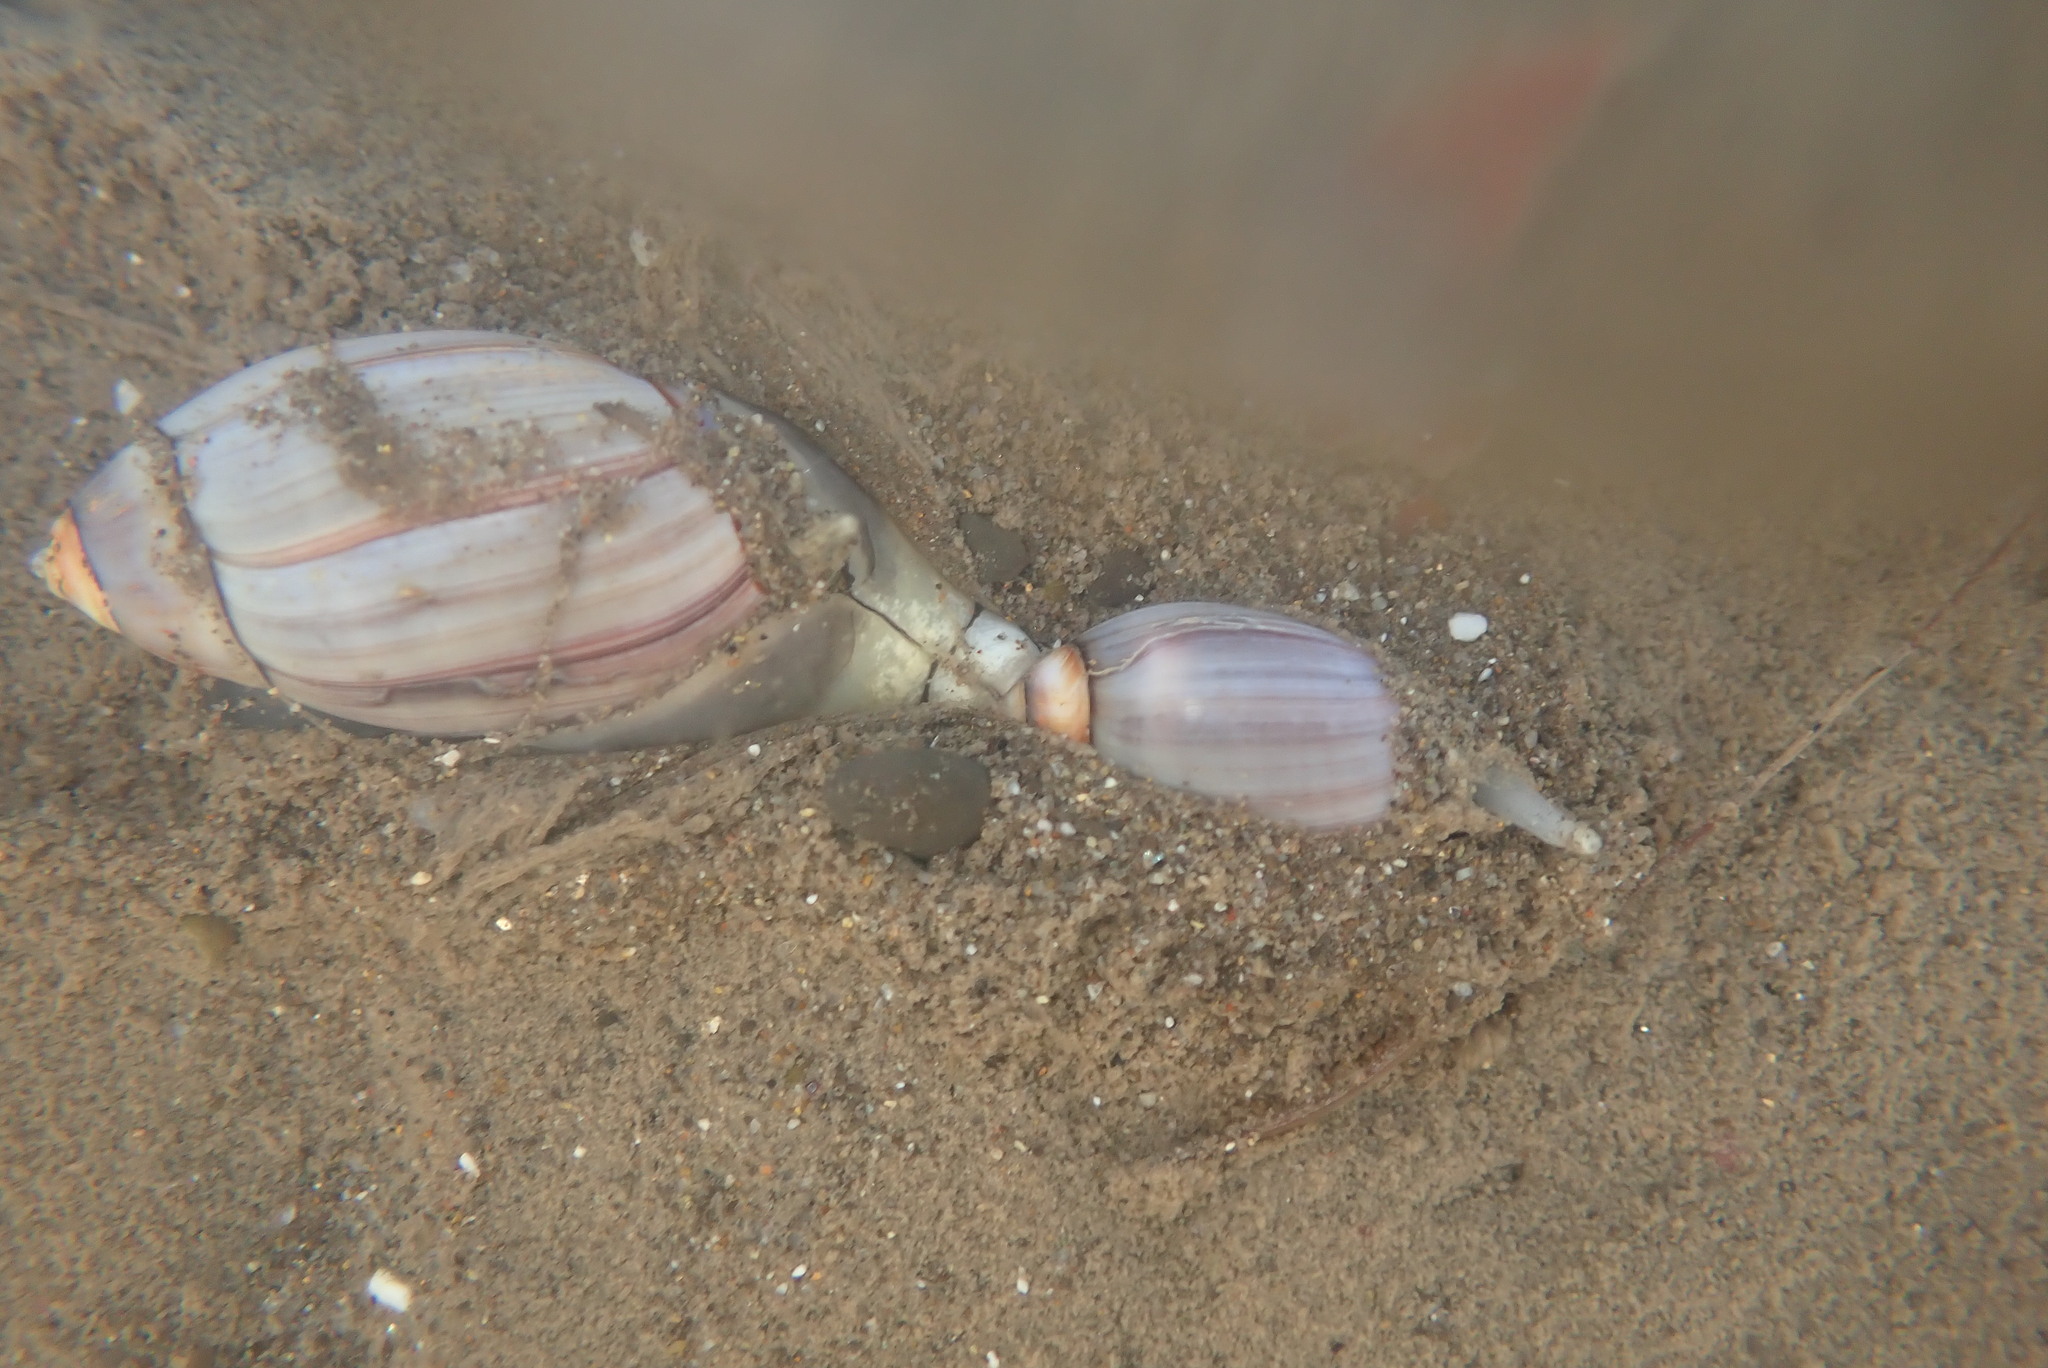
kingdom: Animalia
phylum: Mollusca
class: Gastropoda
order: Neogastropoda
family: Olividae
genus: Callianax
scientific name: Callianax biplicata
